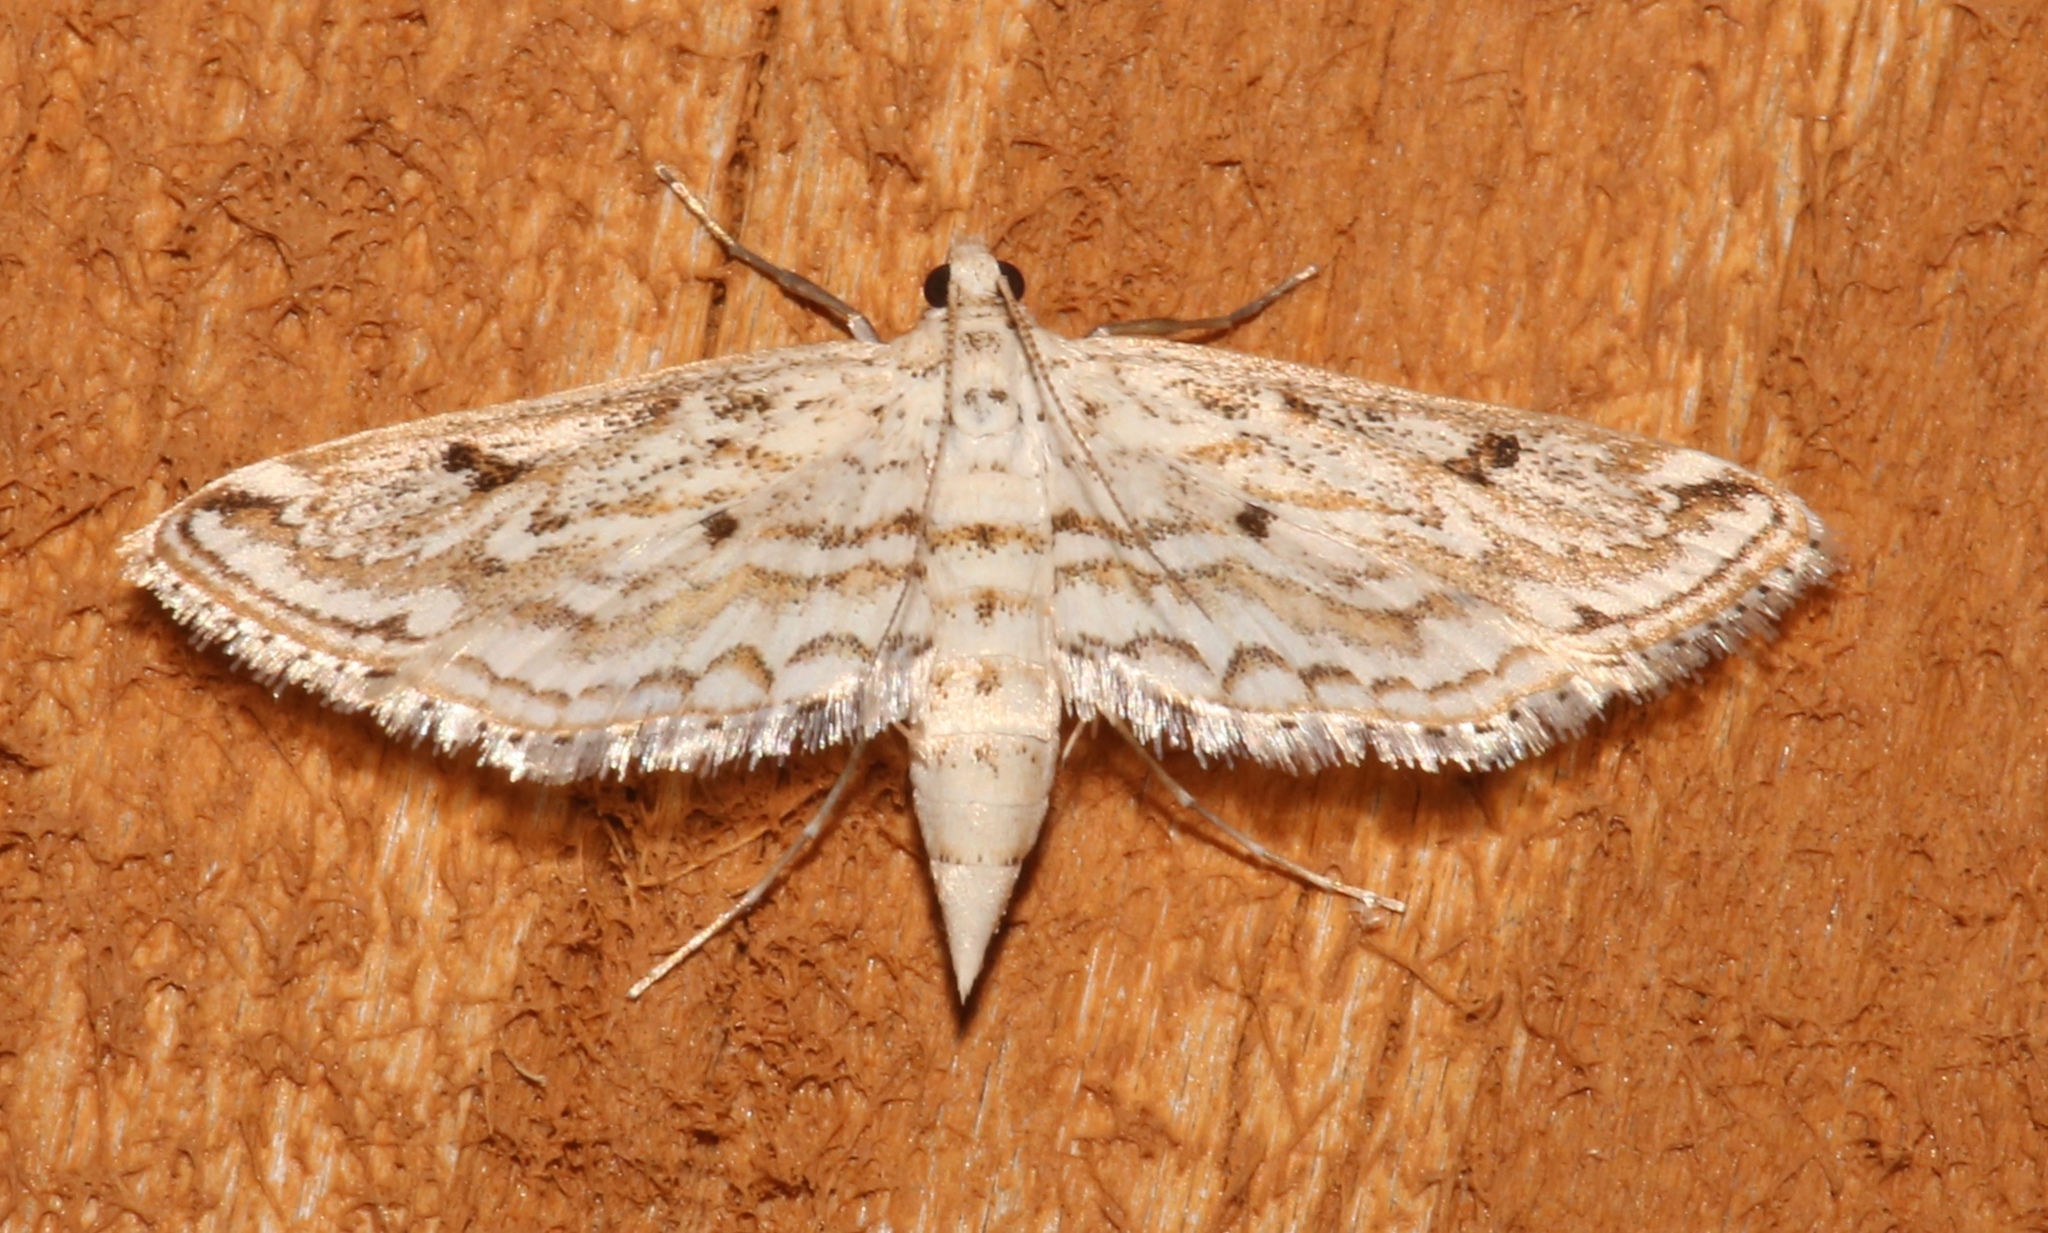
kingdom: Animalia
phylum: Arthropoda
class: Insecta
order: Lepidoptera
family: Crambidae
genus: Parapoynx
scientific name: Parapoynx allionealis
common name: Bladderwort casemaker
